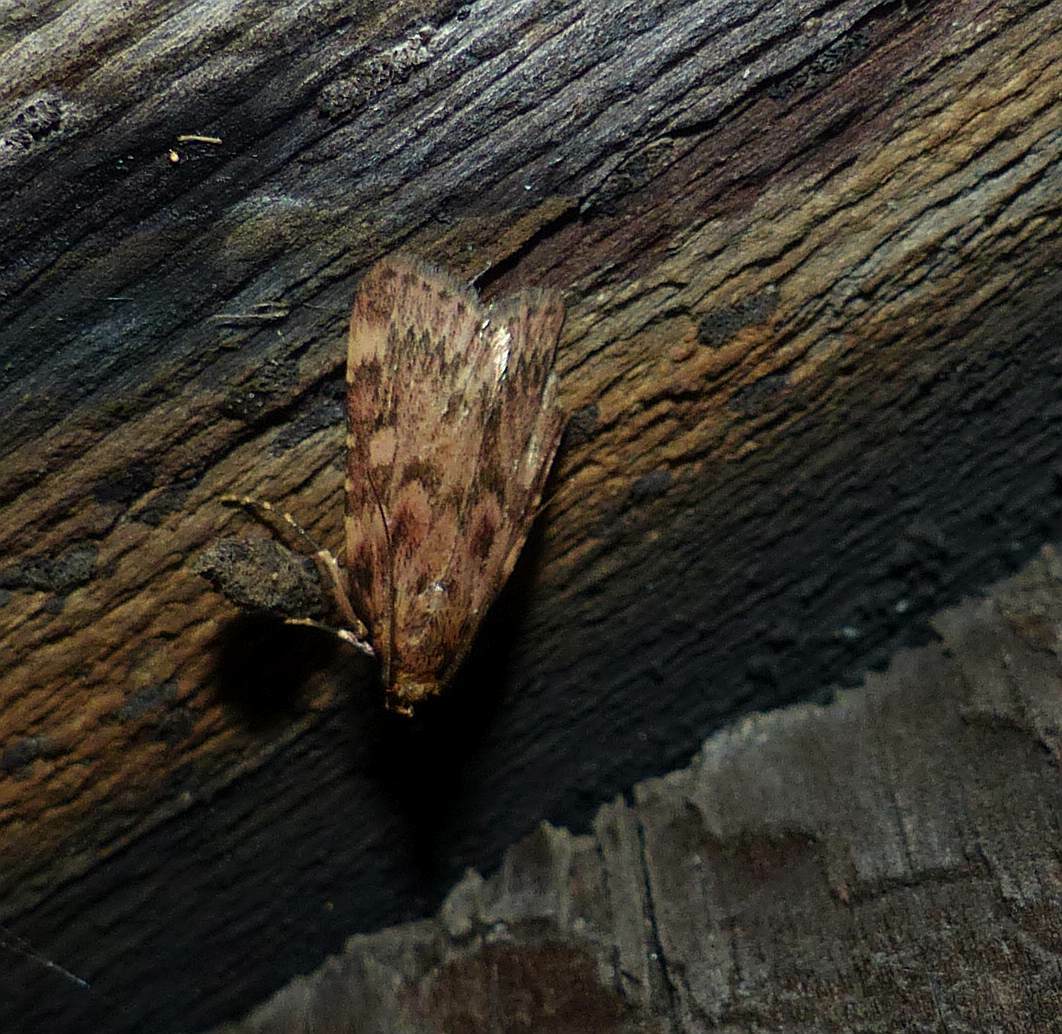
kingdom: Animalia
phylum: Arthropoda
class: Insecta
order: Lepidoptera
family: Pyralidae
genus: Aglossa
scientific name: Aglossa cuprina
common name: Grease moth
